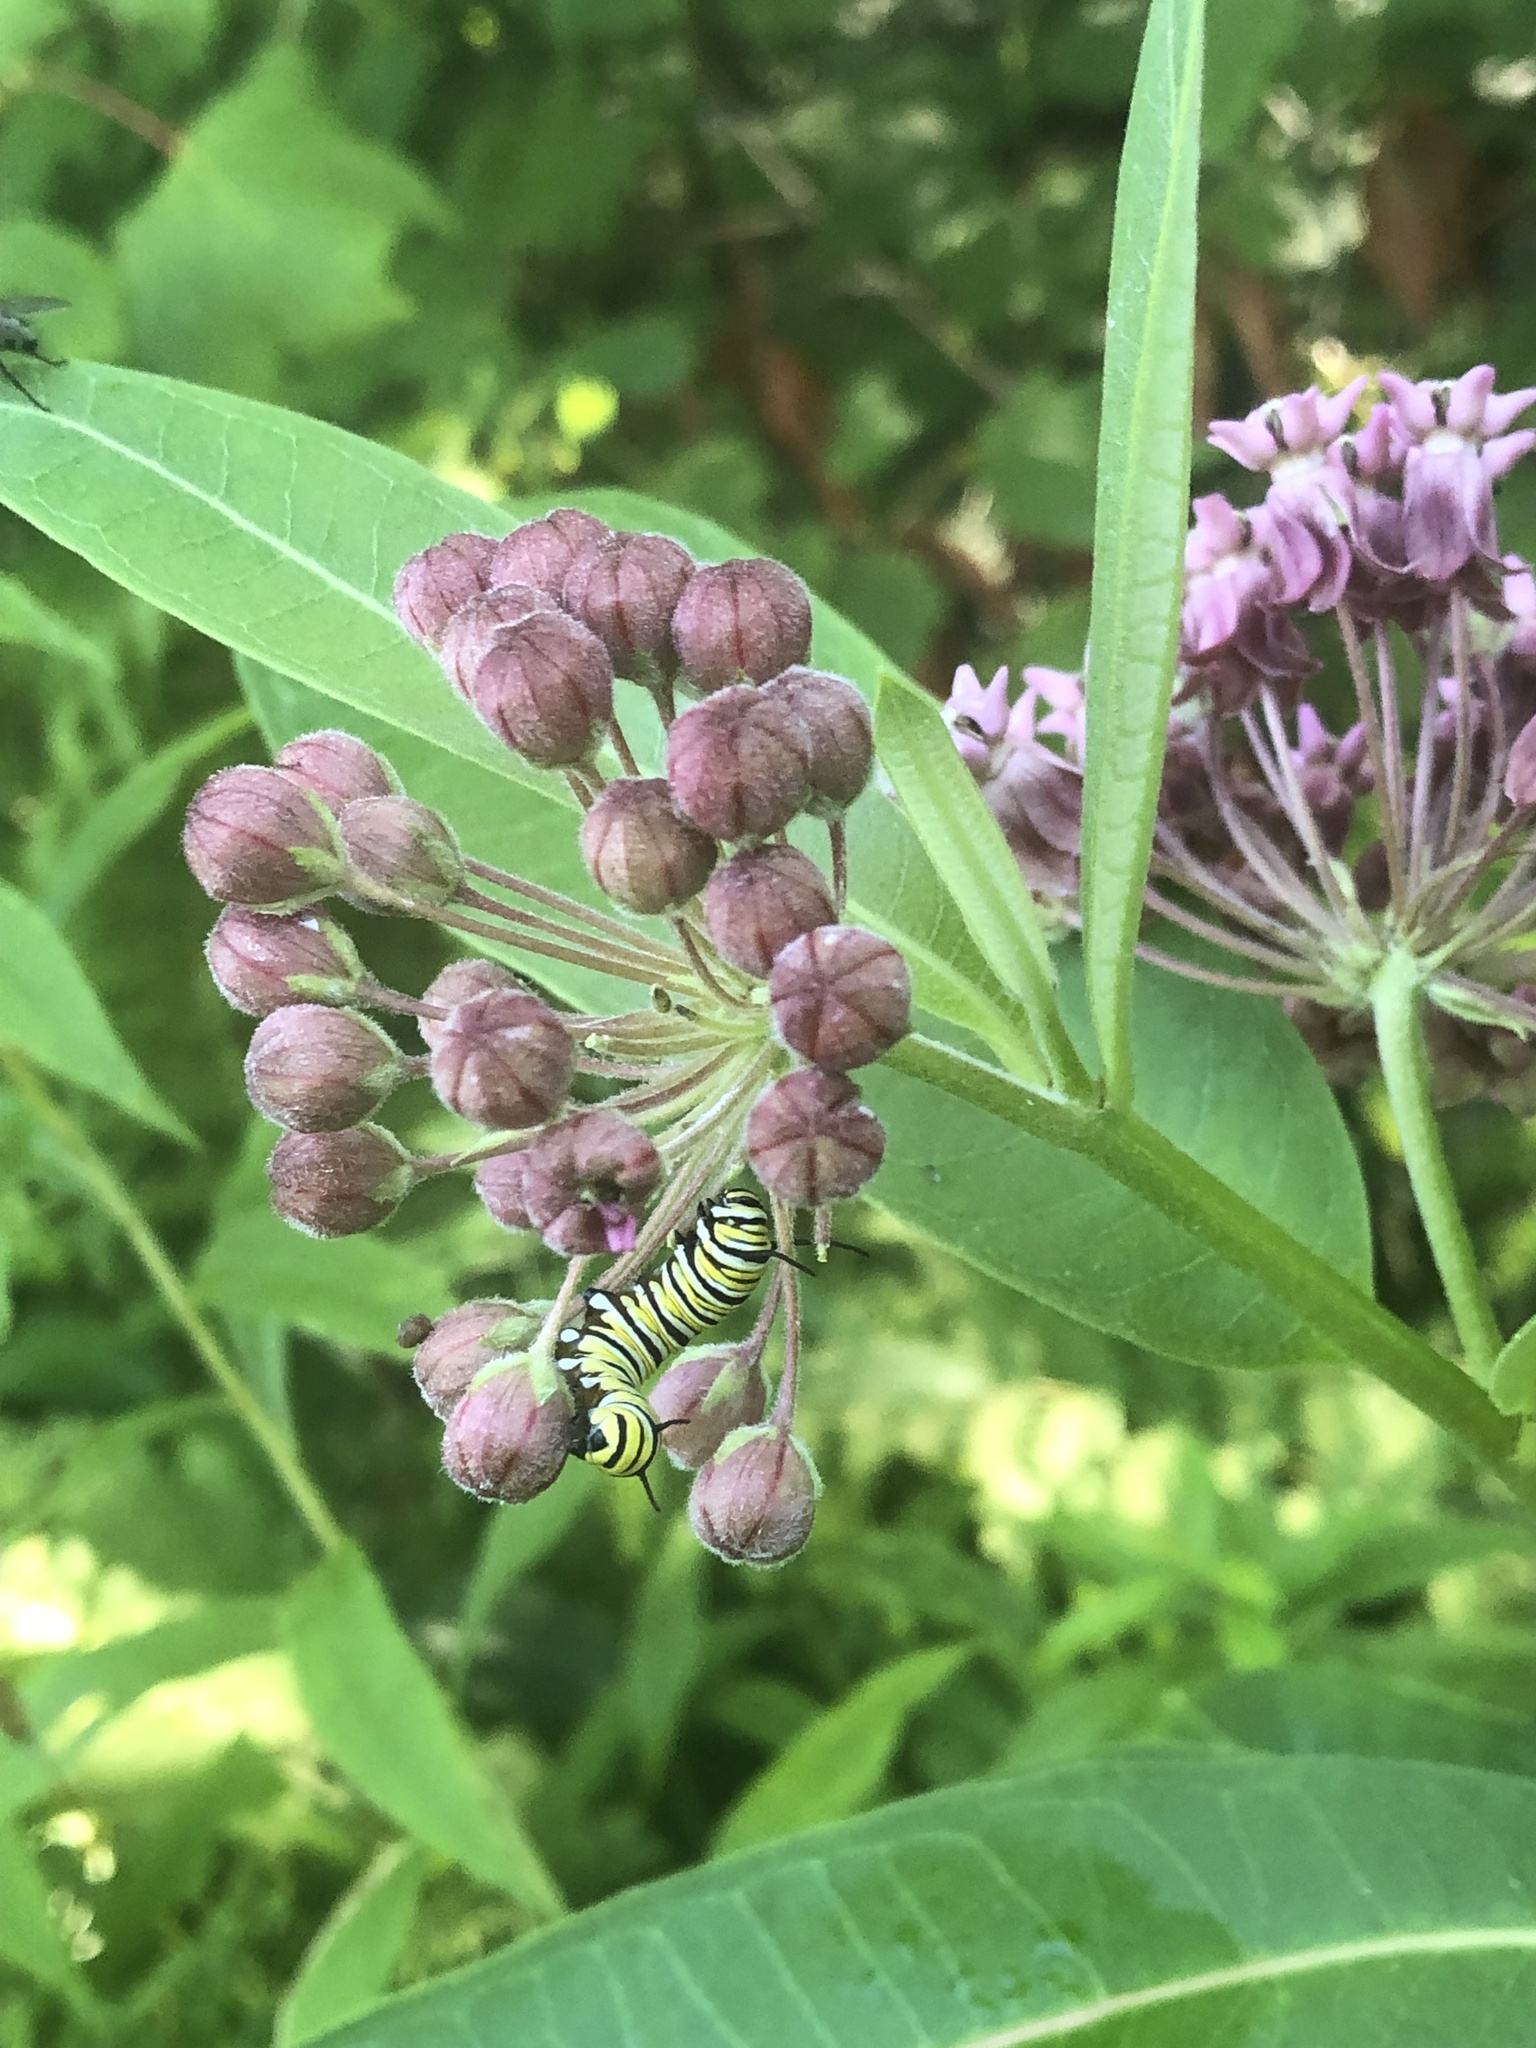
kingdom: Animalia
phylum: Arthropoda
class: Insecta
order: Lepidoptera
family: Nymphalidae
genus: Danaus
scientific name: Danaus plexippus
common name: Monarch
